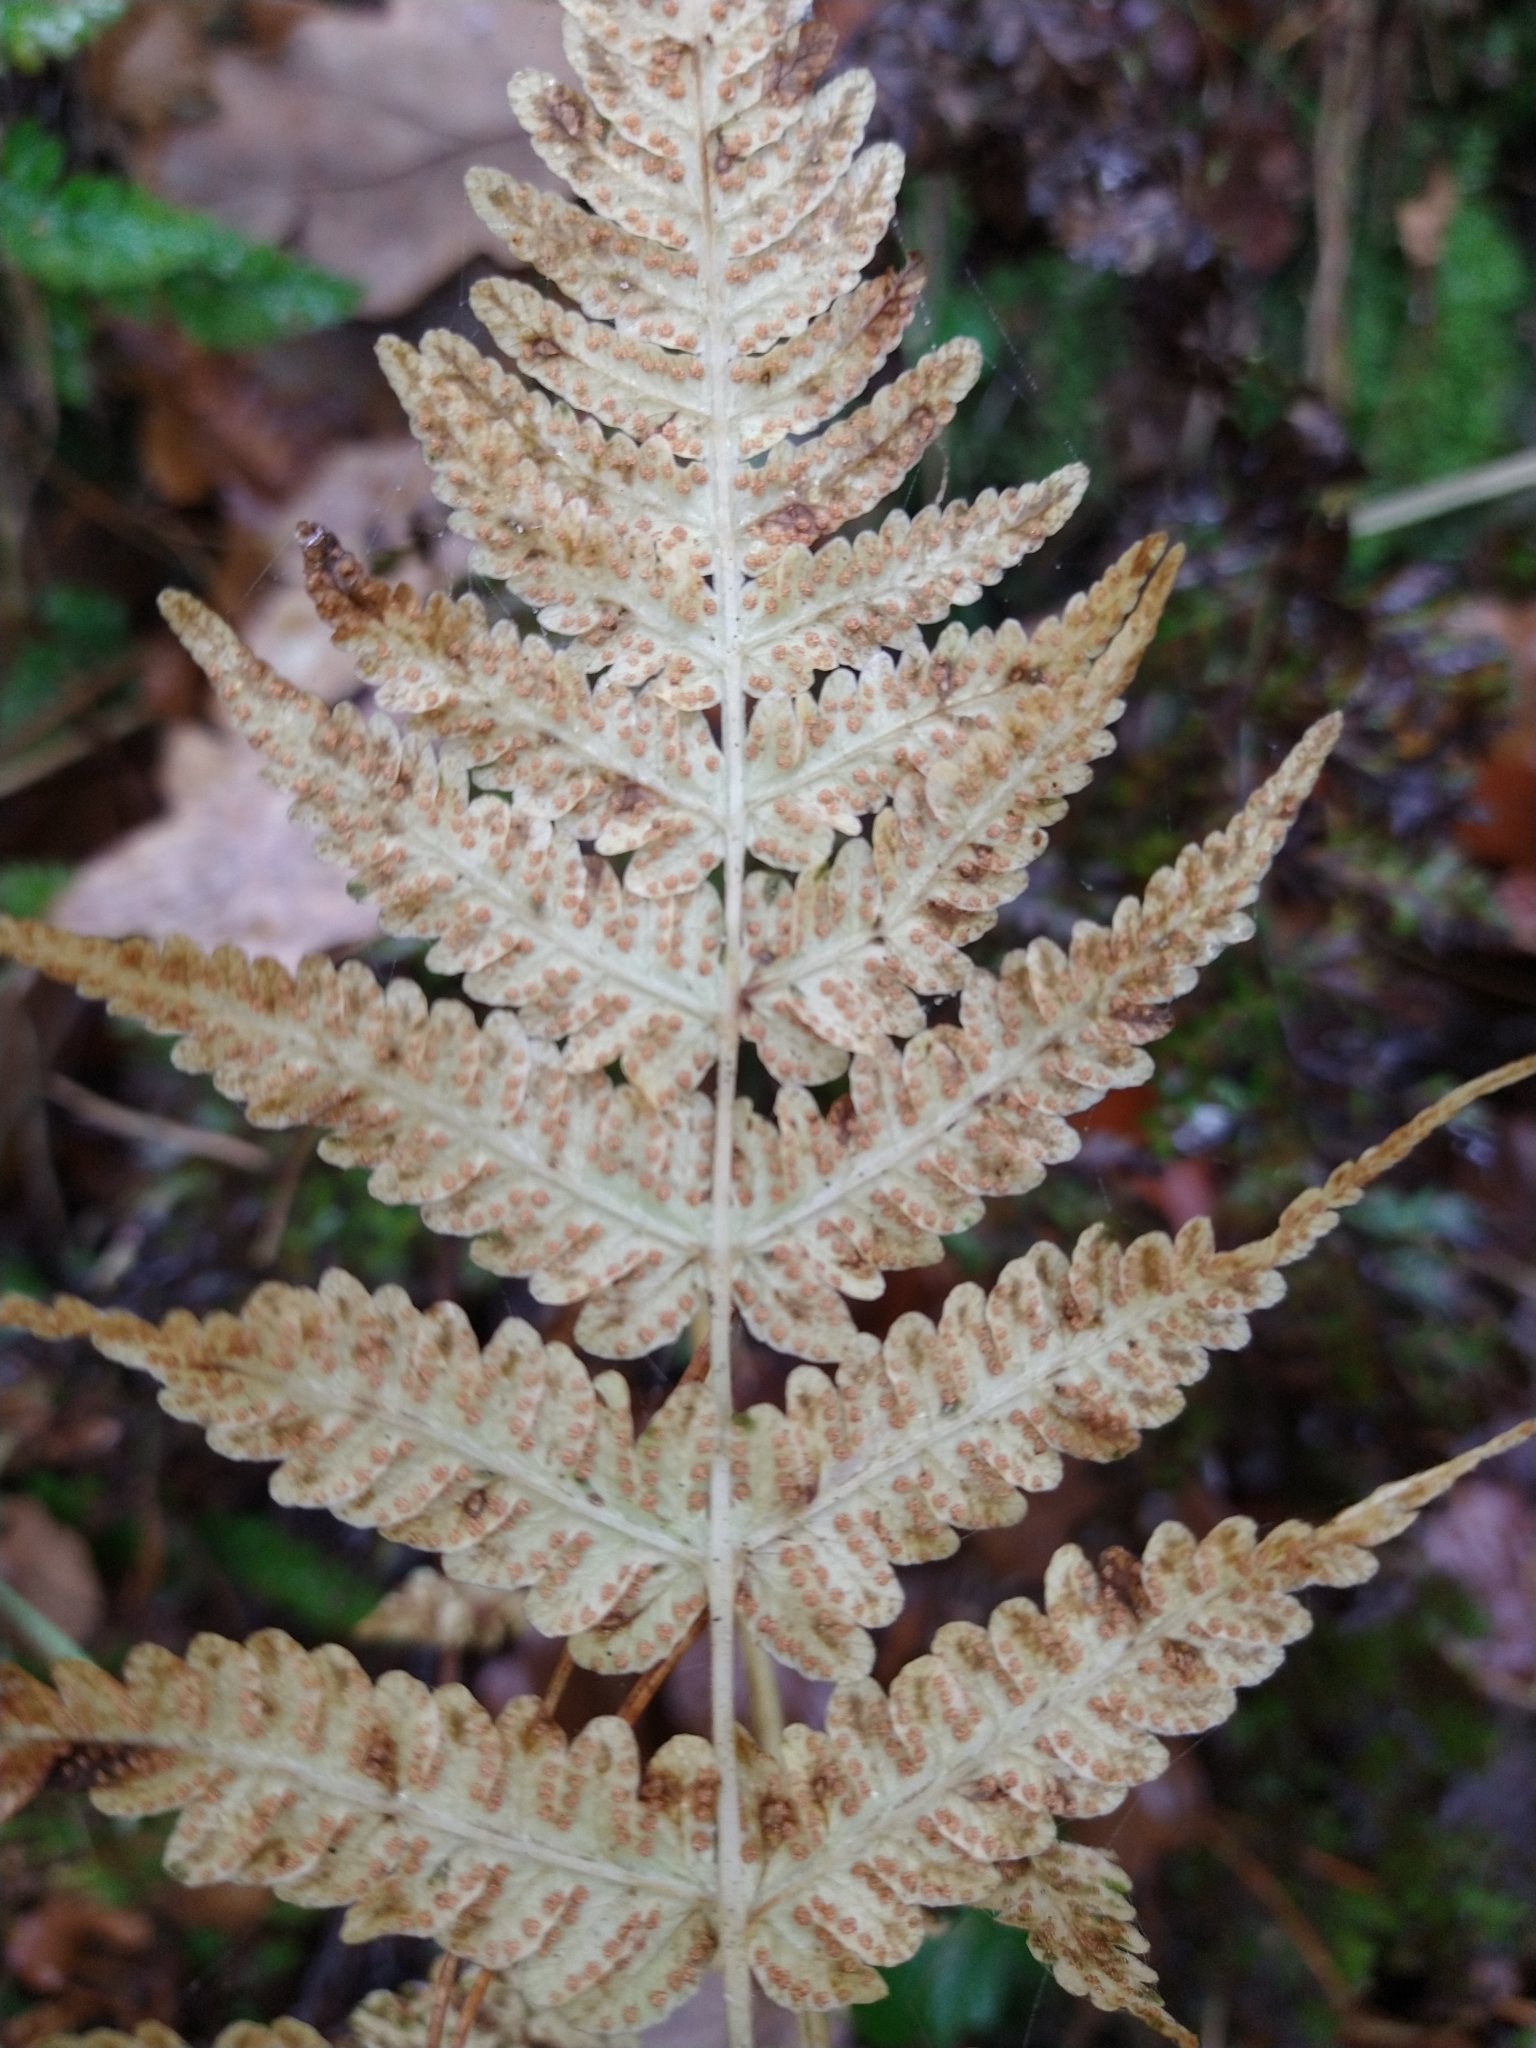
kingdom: Plantae
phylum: Tracheophyta
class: Polypodiopsida
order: Polypodiales
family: Thelypteridaceae
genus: Oreopteris
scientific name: Oreopteris limbosperma
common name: Lemon-scented fern
